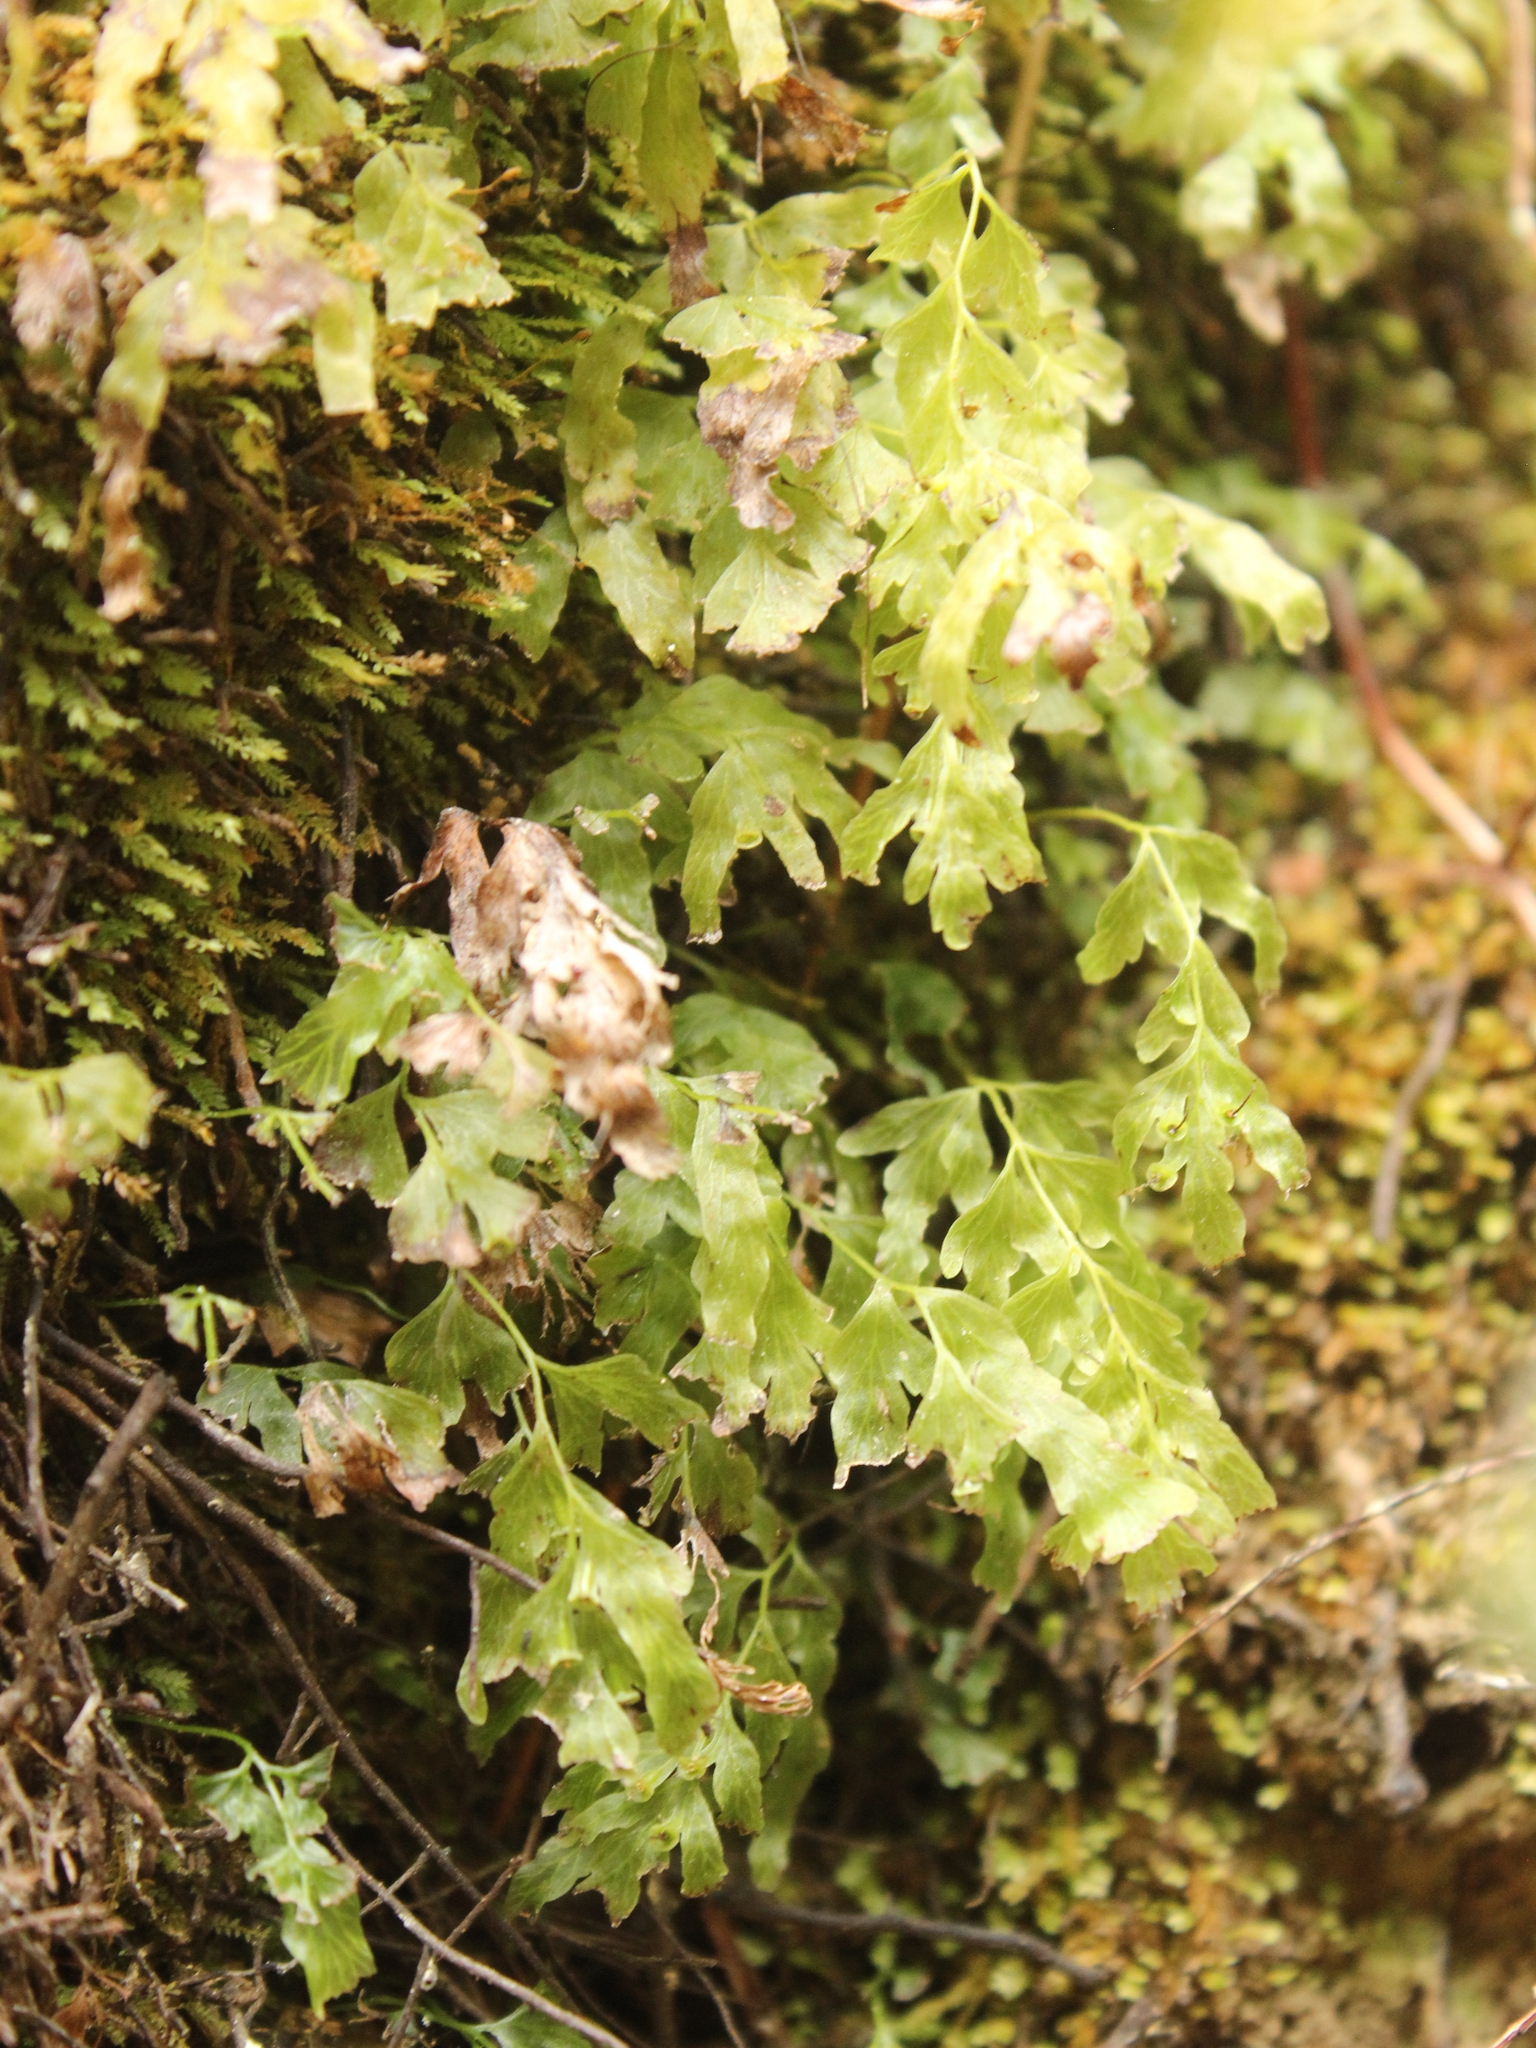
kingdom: Plantae
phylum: Tracheophyta
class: Polypodiopsida
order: Hymenophyllales
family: Hymenophyllaceae
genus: Polyphlebium
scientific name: Polyphlebium venosum
